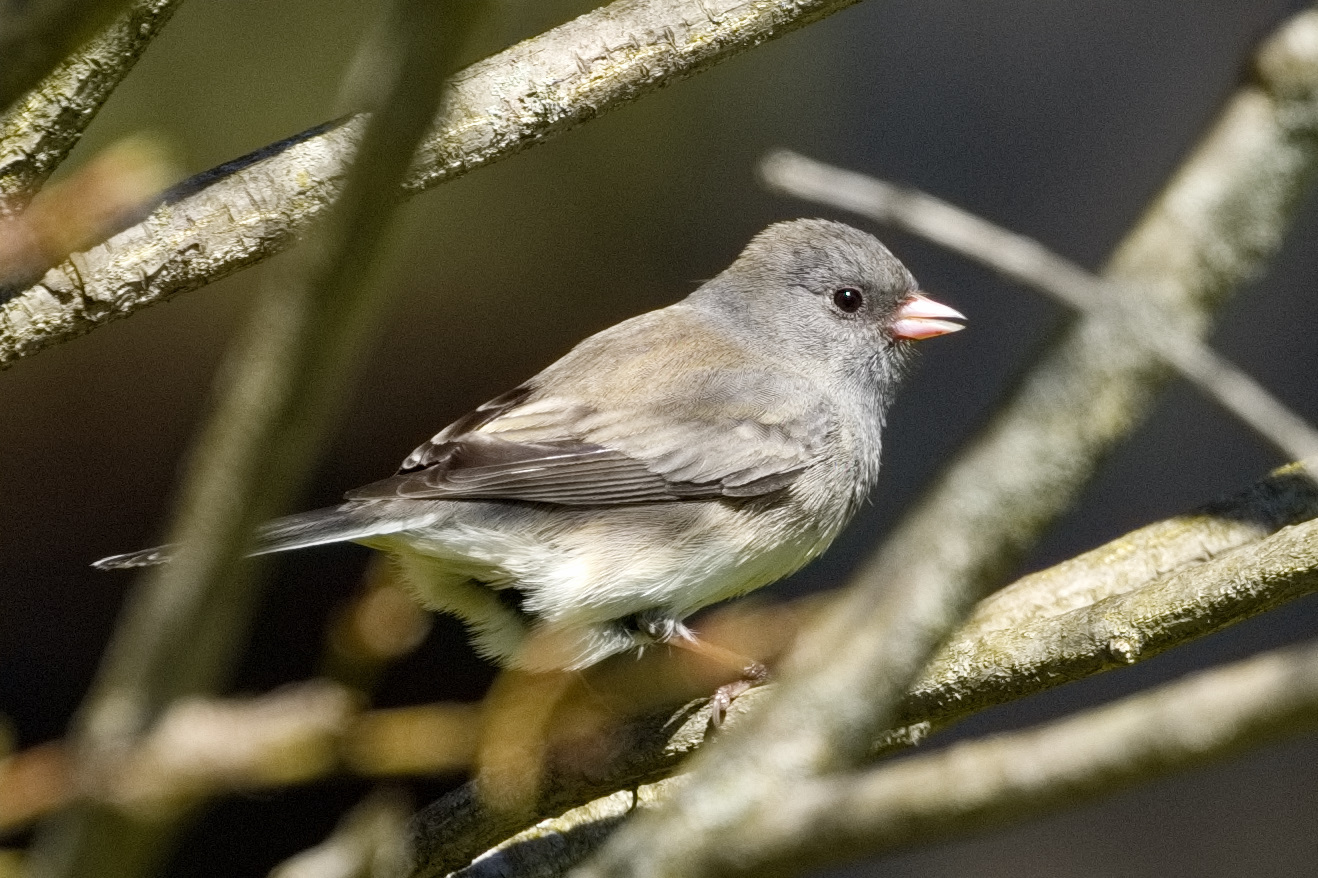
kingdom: Animalia
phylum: Chordata
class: Aves
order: Passeriformes
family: Passerellidae
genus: Junco
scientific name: Junco hyemalis
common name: Dark-eyed junco
